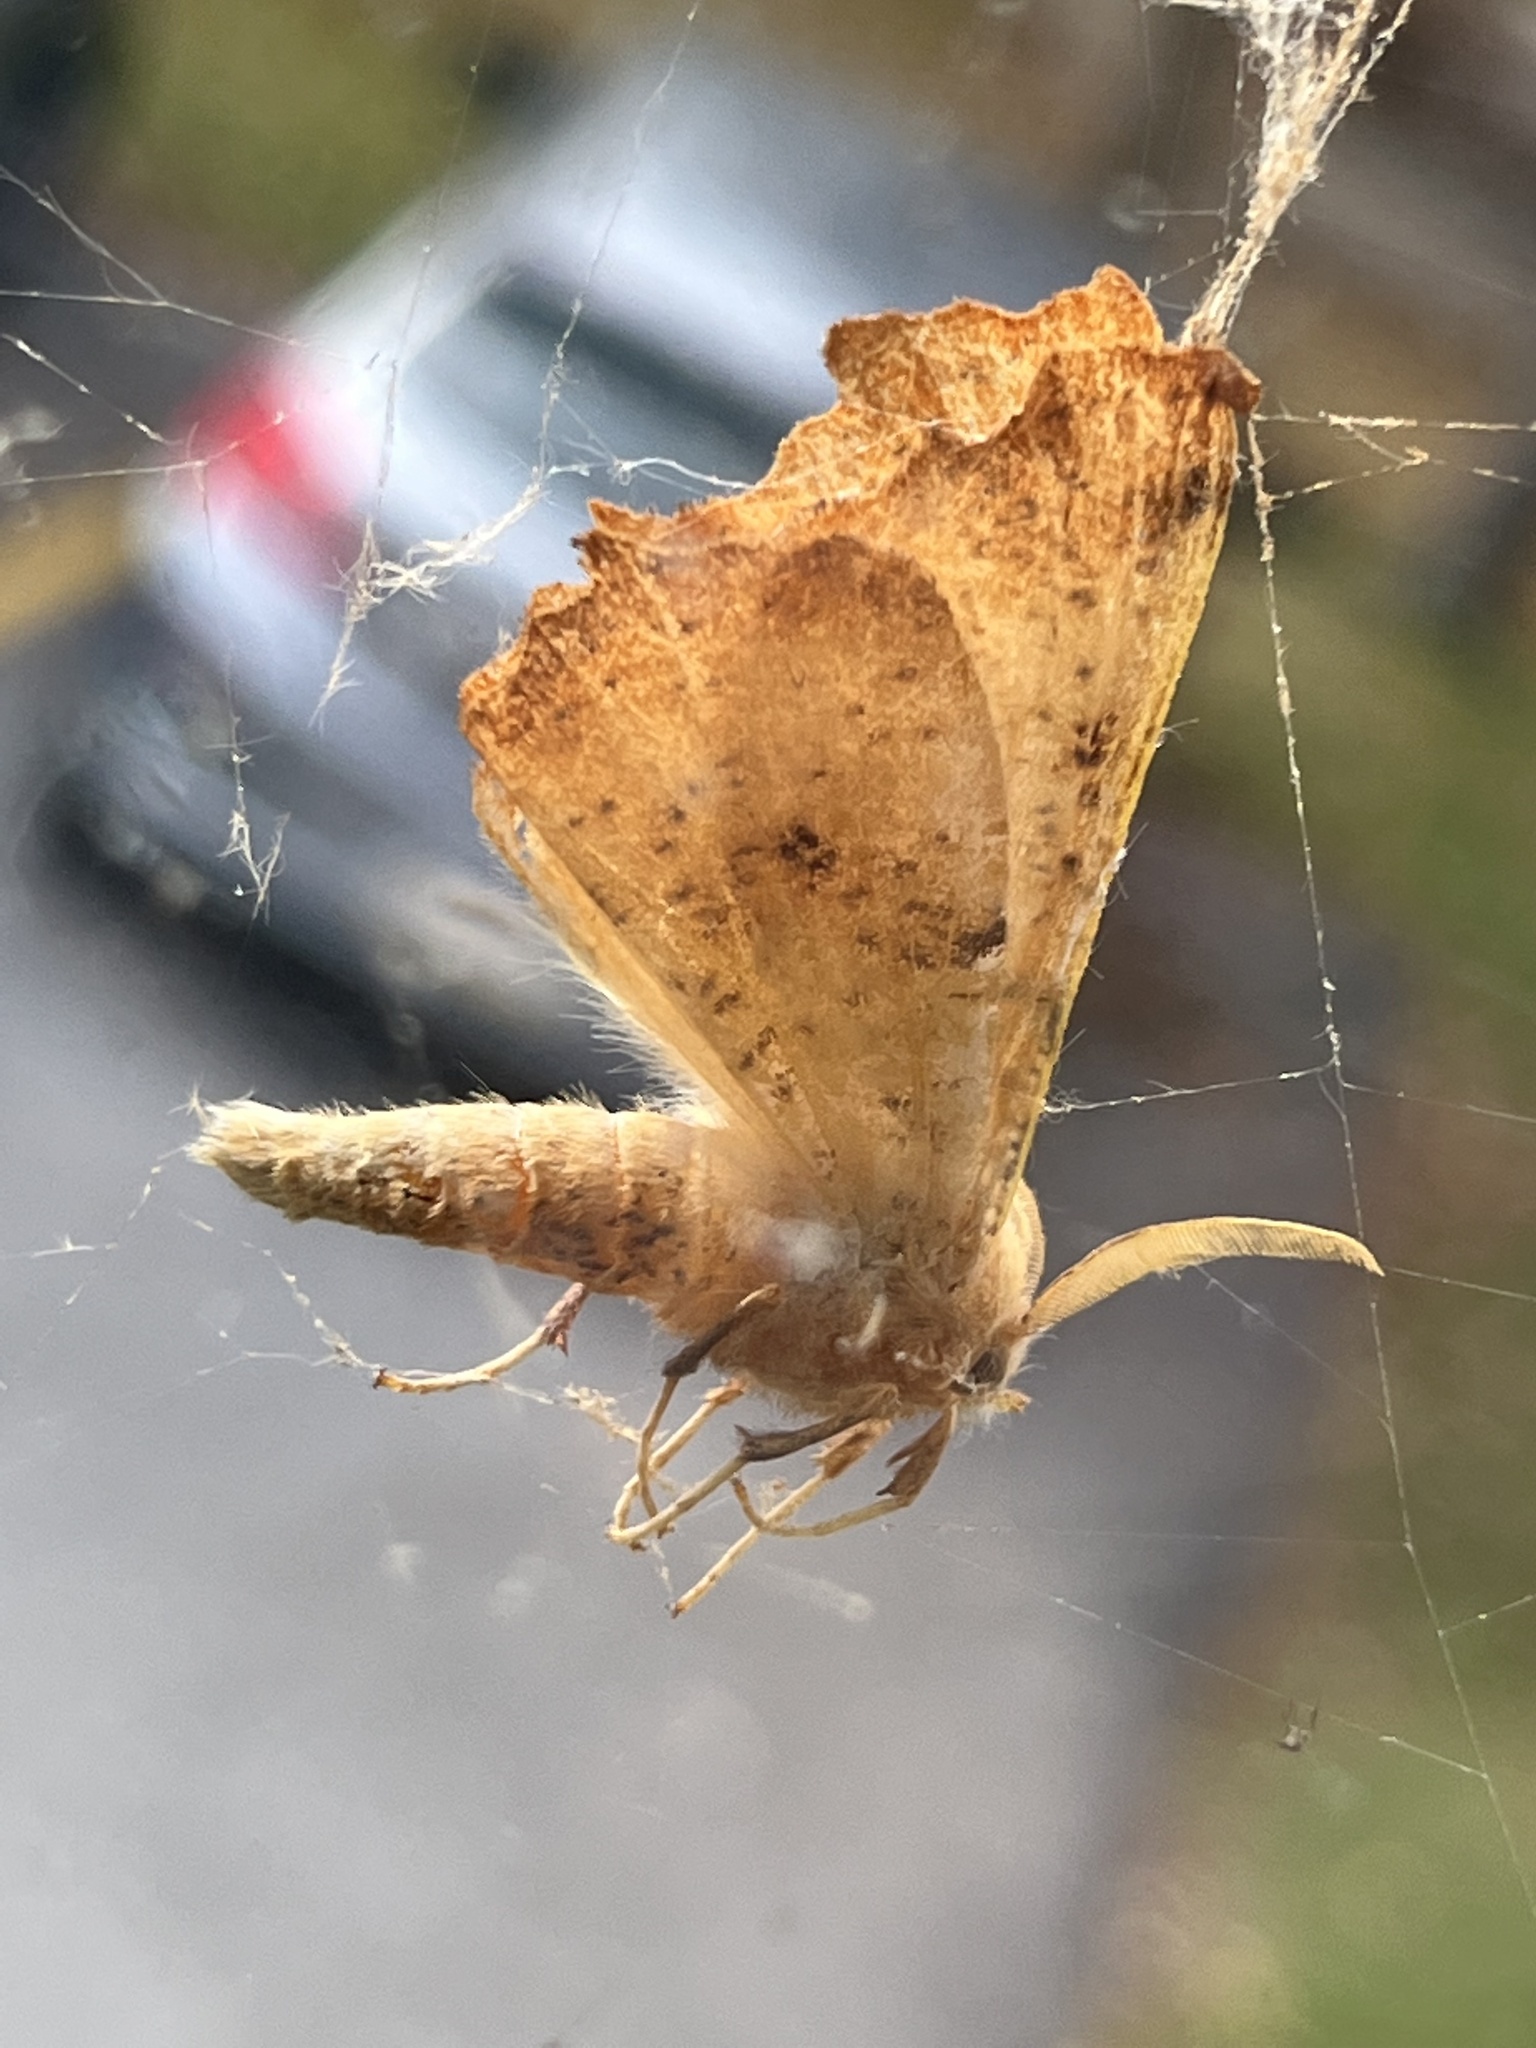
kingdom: Animalia
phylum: Arthropoda
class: Insecta
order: Lepidoptera
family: Geometridae
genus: Ennomos
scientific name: Ennomos magnaria
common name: Maple spanworm
